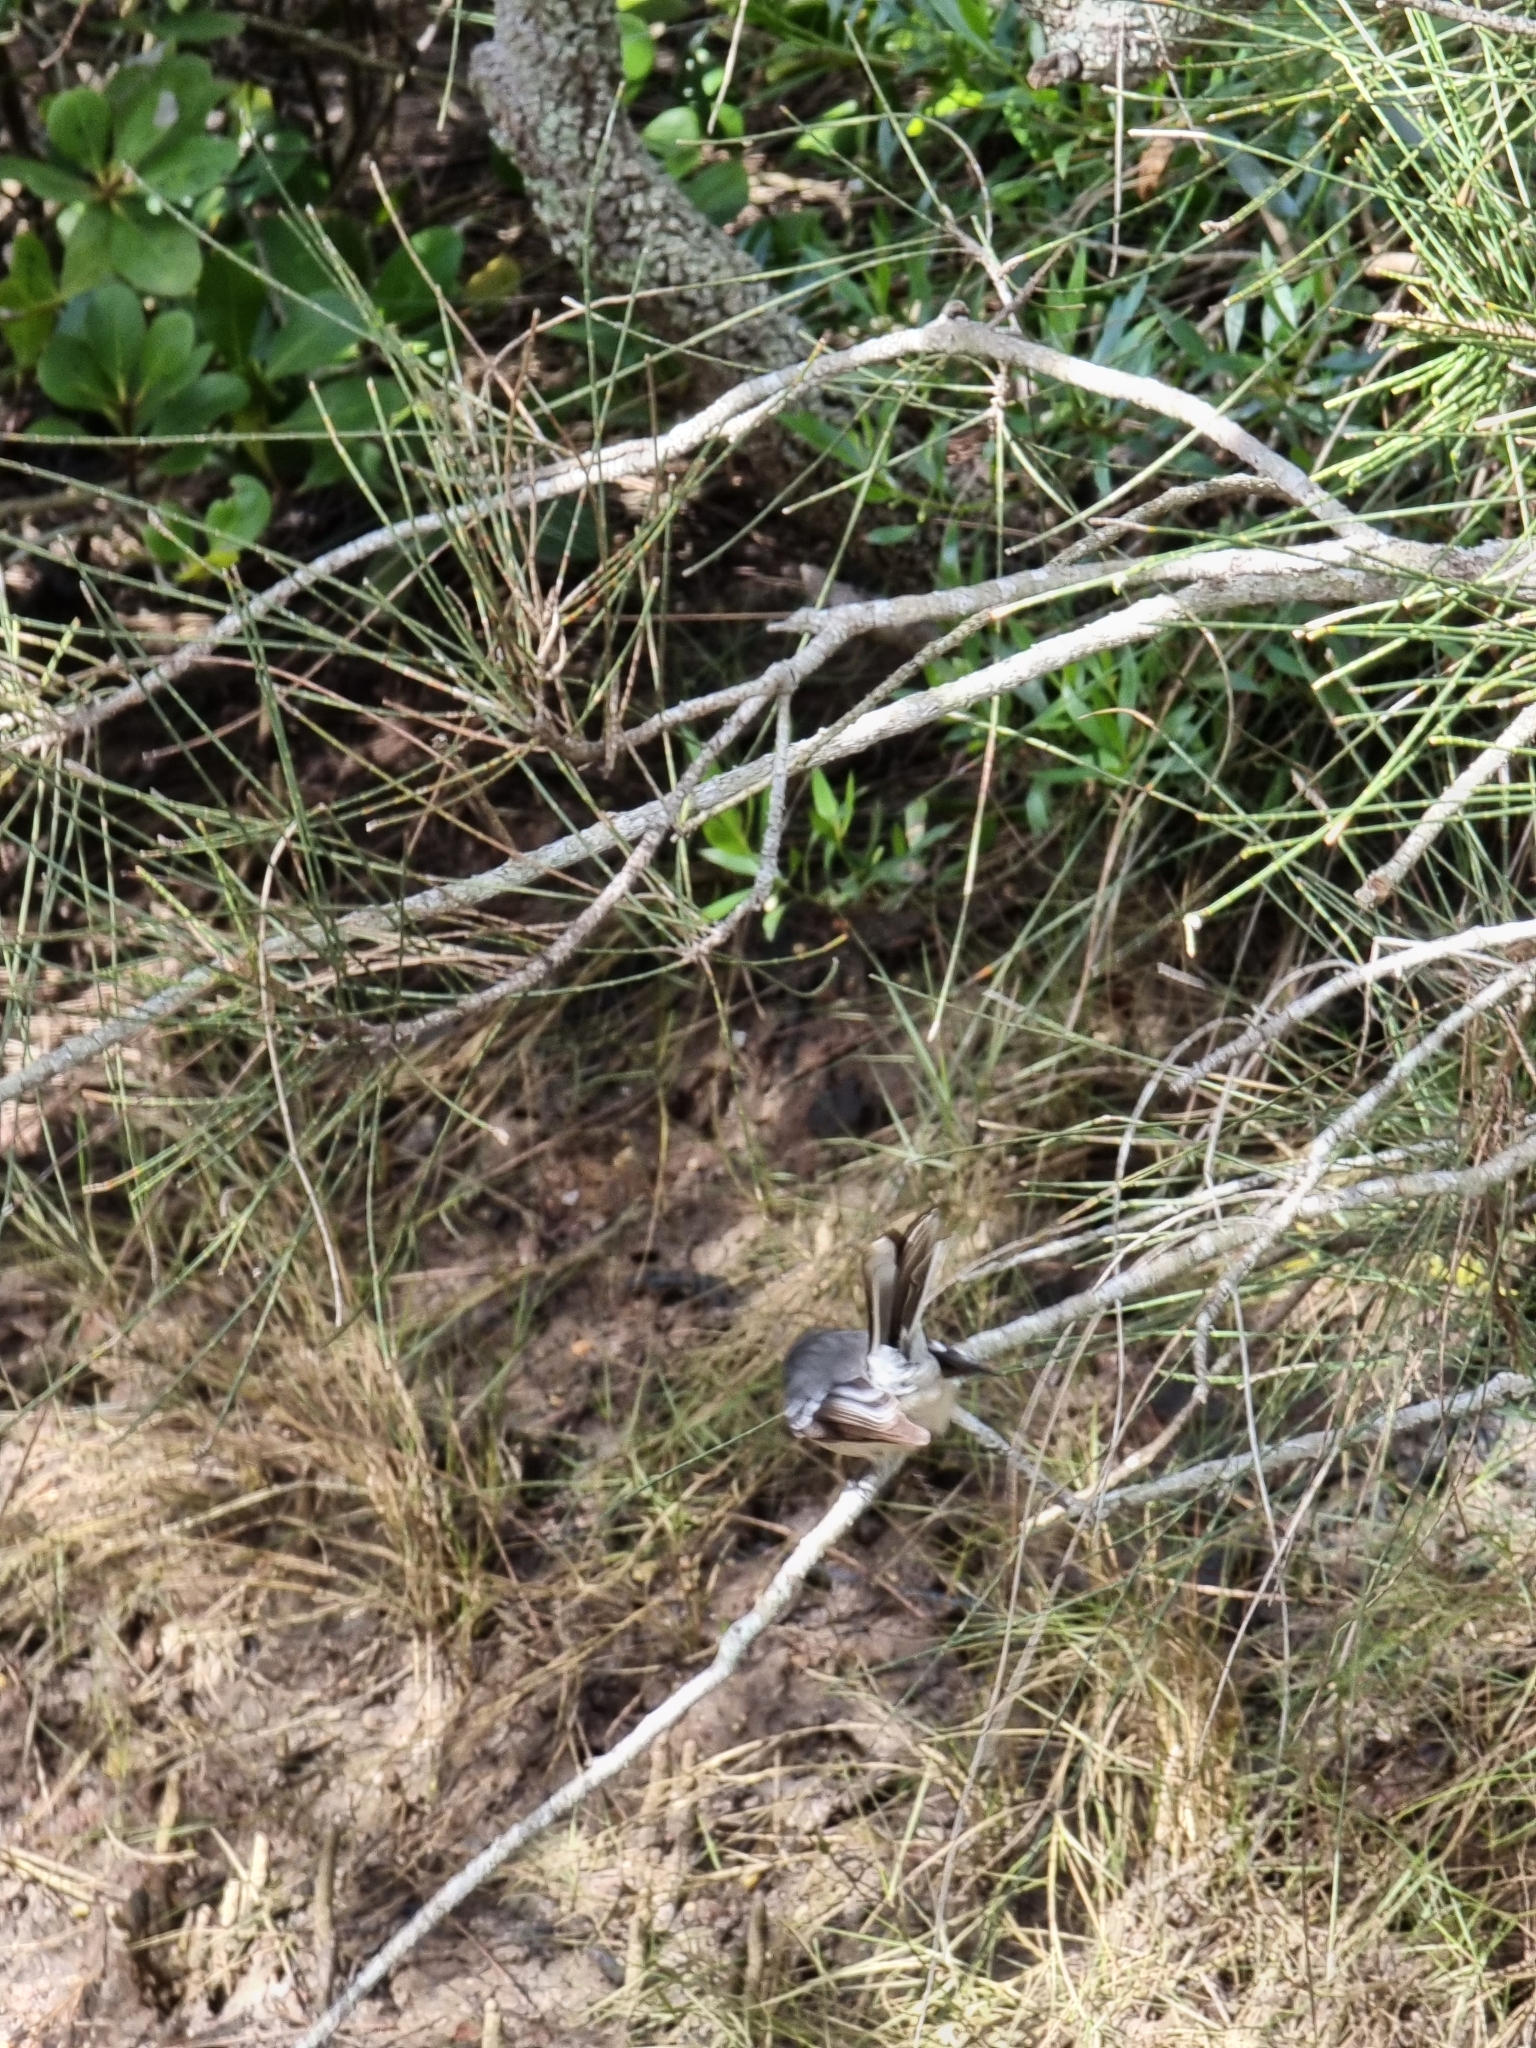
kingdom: Animalia
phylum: Chordata
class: Aves
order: Passeriformes
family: Rhipiduridae
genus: Rhipidura
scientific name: Rhipidura albiscapa
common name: Grey fantail
